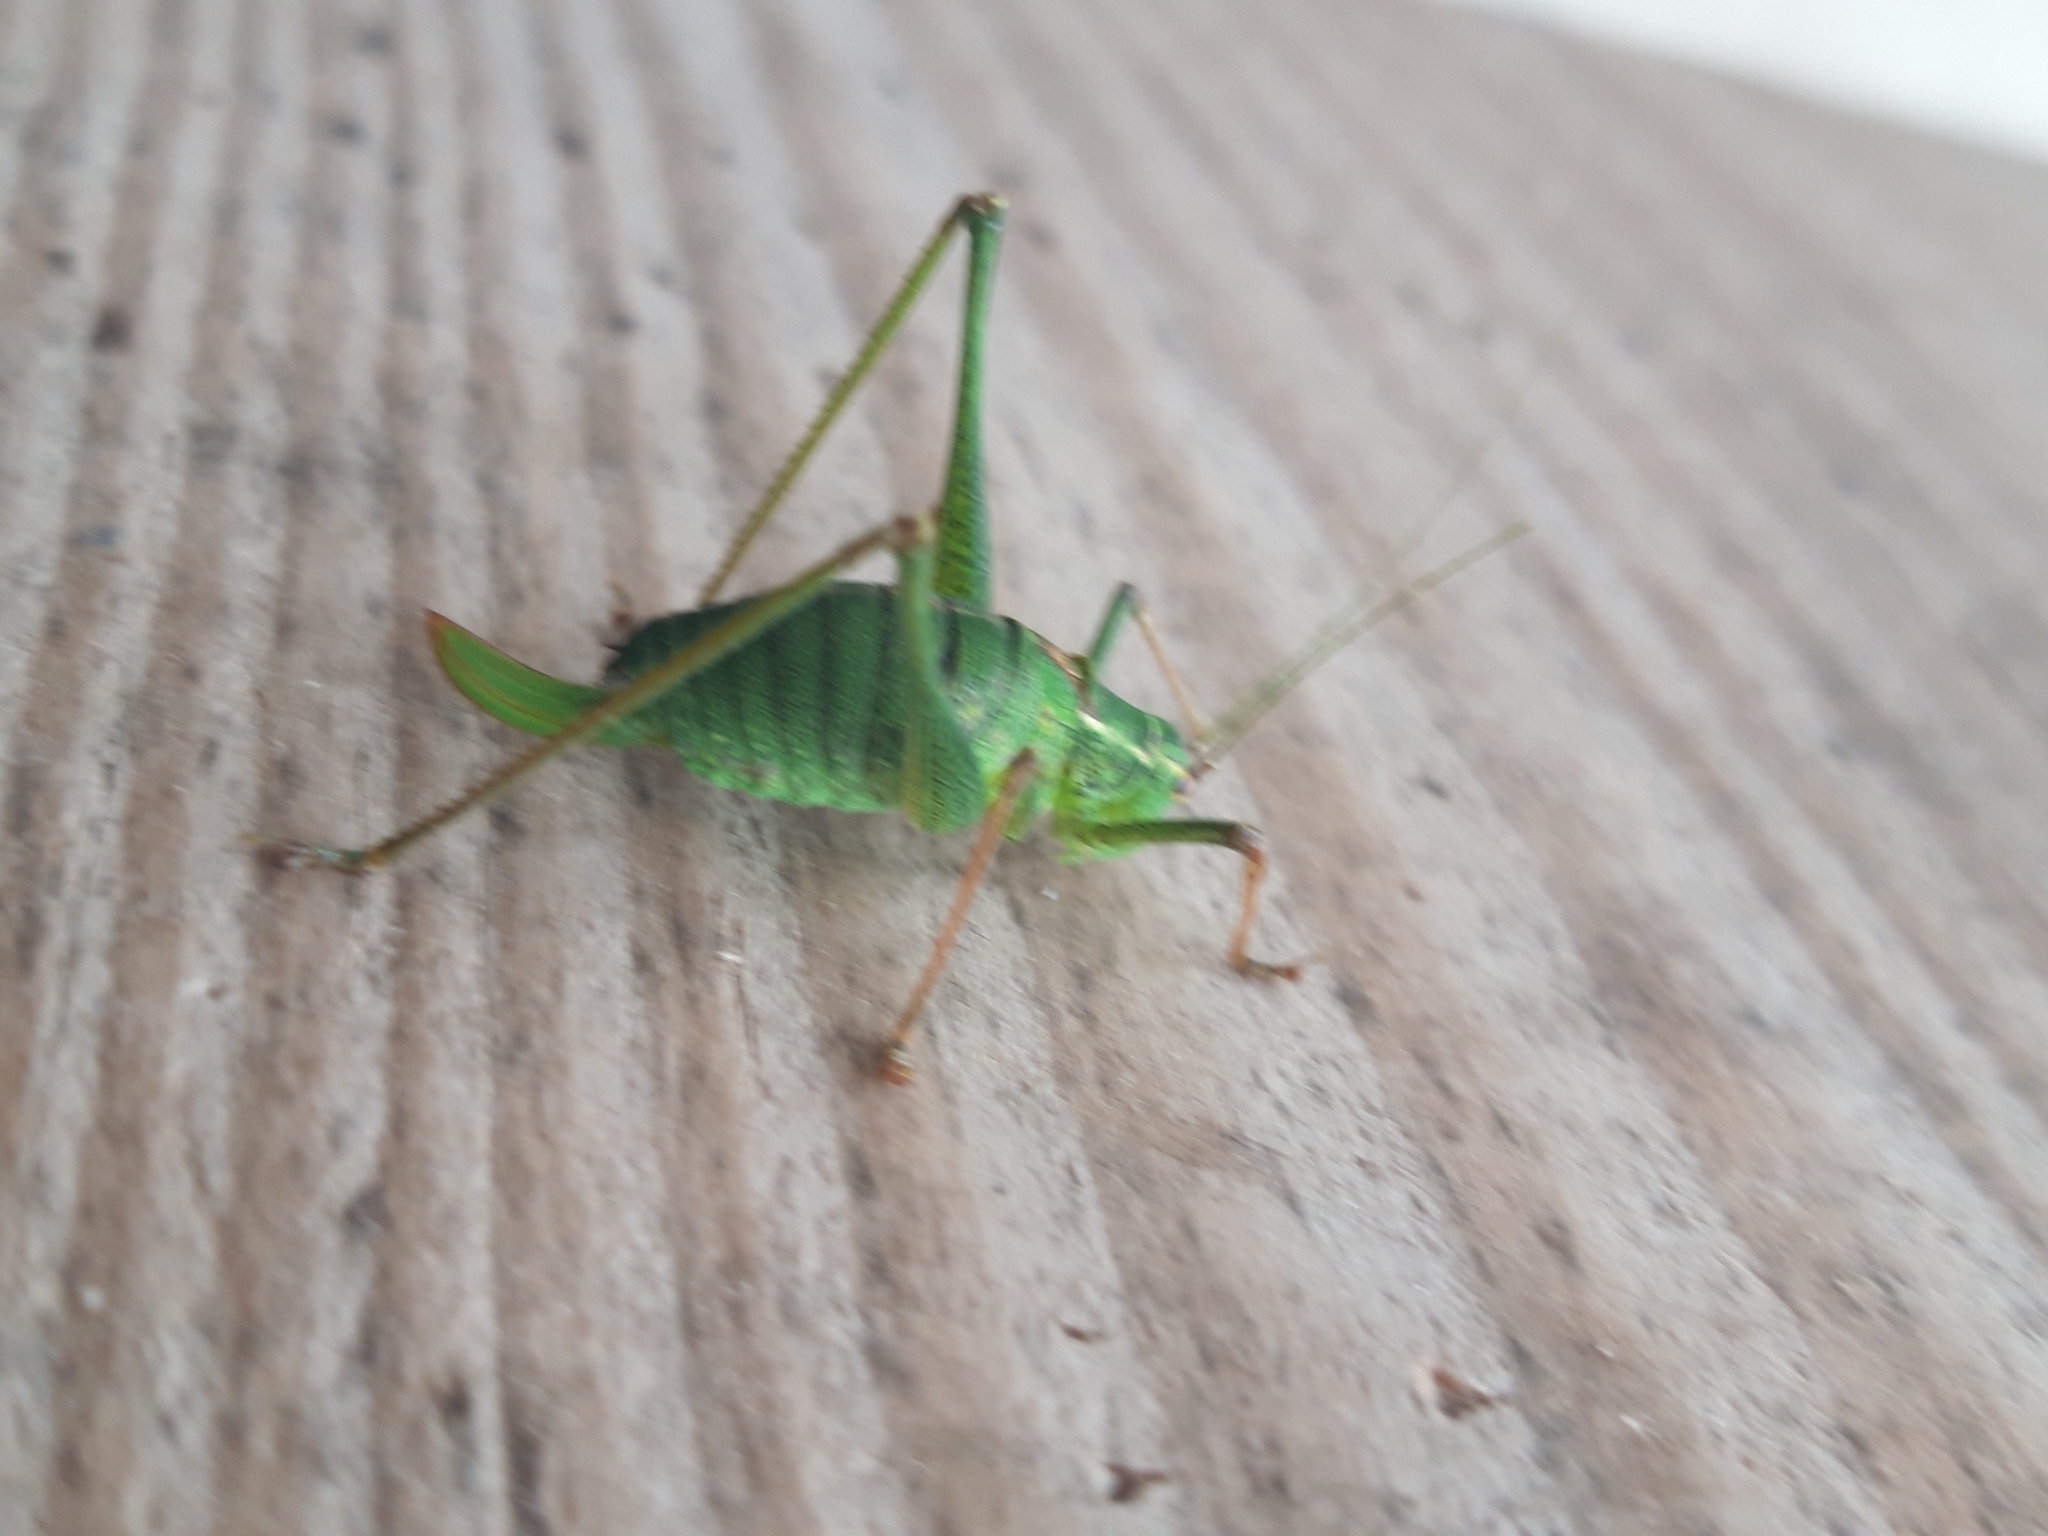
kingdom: Animalia
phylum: Arthropoda
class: Insecta
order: Orthoptera
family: Tettigoniidae
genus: Leptophyes
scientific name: Leptophyes punctatissima
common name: Speckled bush-cricket
